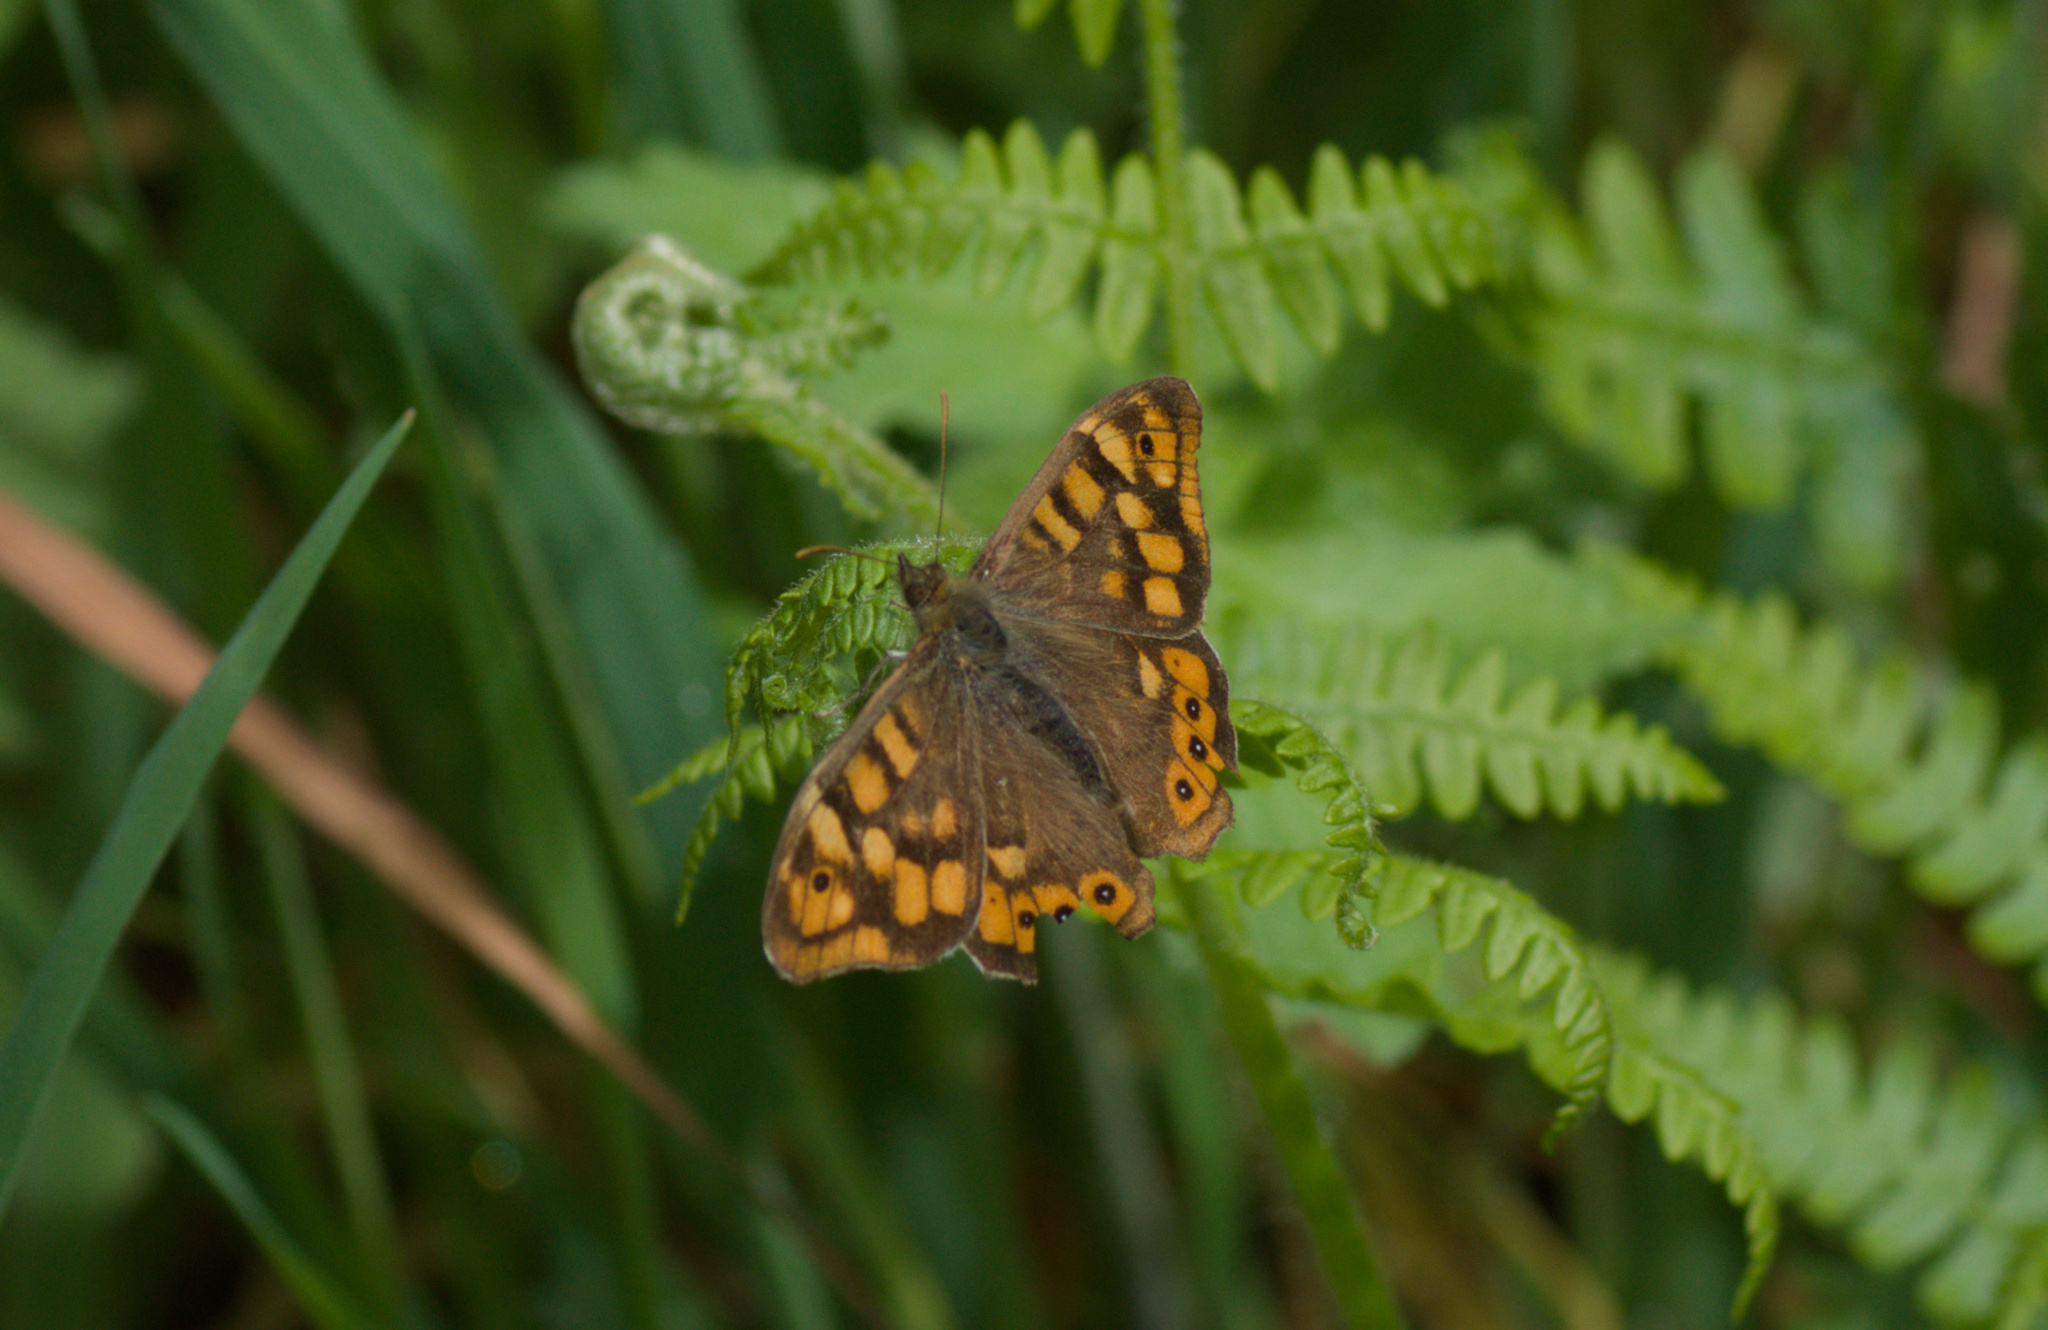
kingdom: Animalia
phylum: Arthropoda
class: Insecta
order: Lepidoptera
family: Nymphalidae
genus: Pararge
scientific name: Pararge aegeria
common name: Speckled wood
